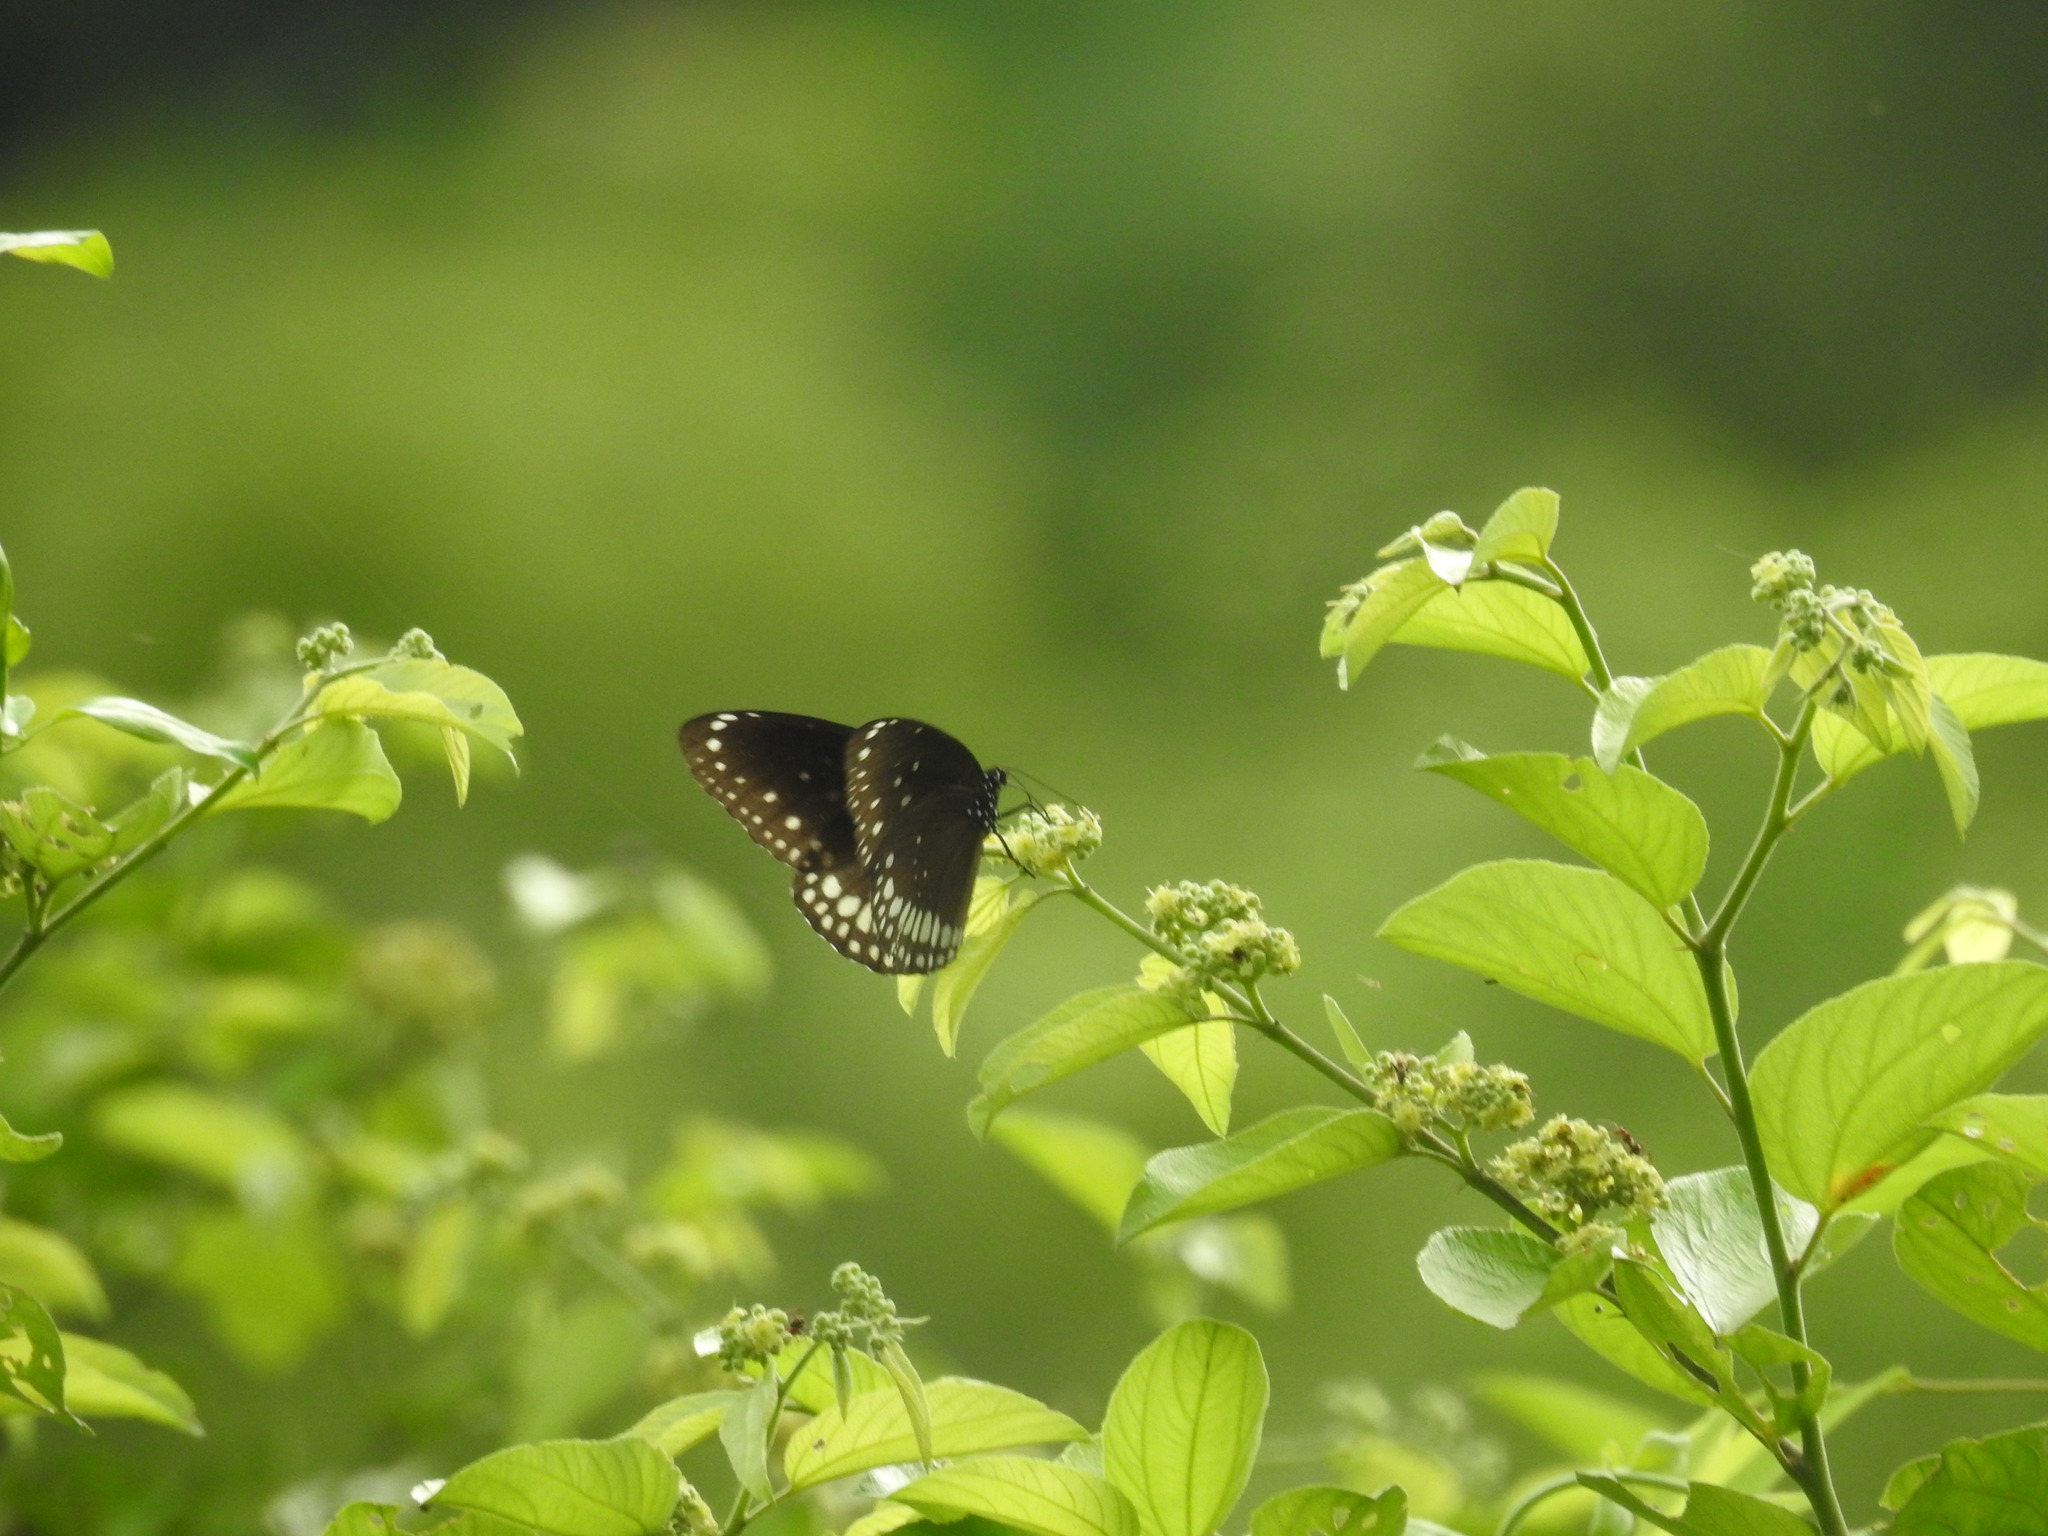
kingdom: Animalia
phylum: Arthropoda
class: Insecta
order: Lepidoptera
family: Nymphalidae
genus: Euploea
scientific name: Euploea core
